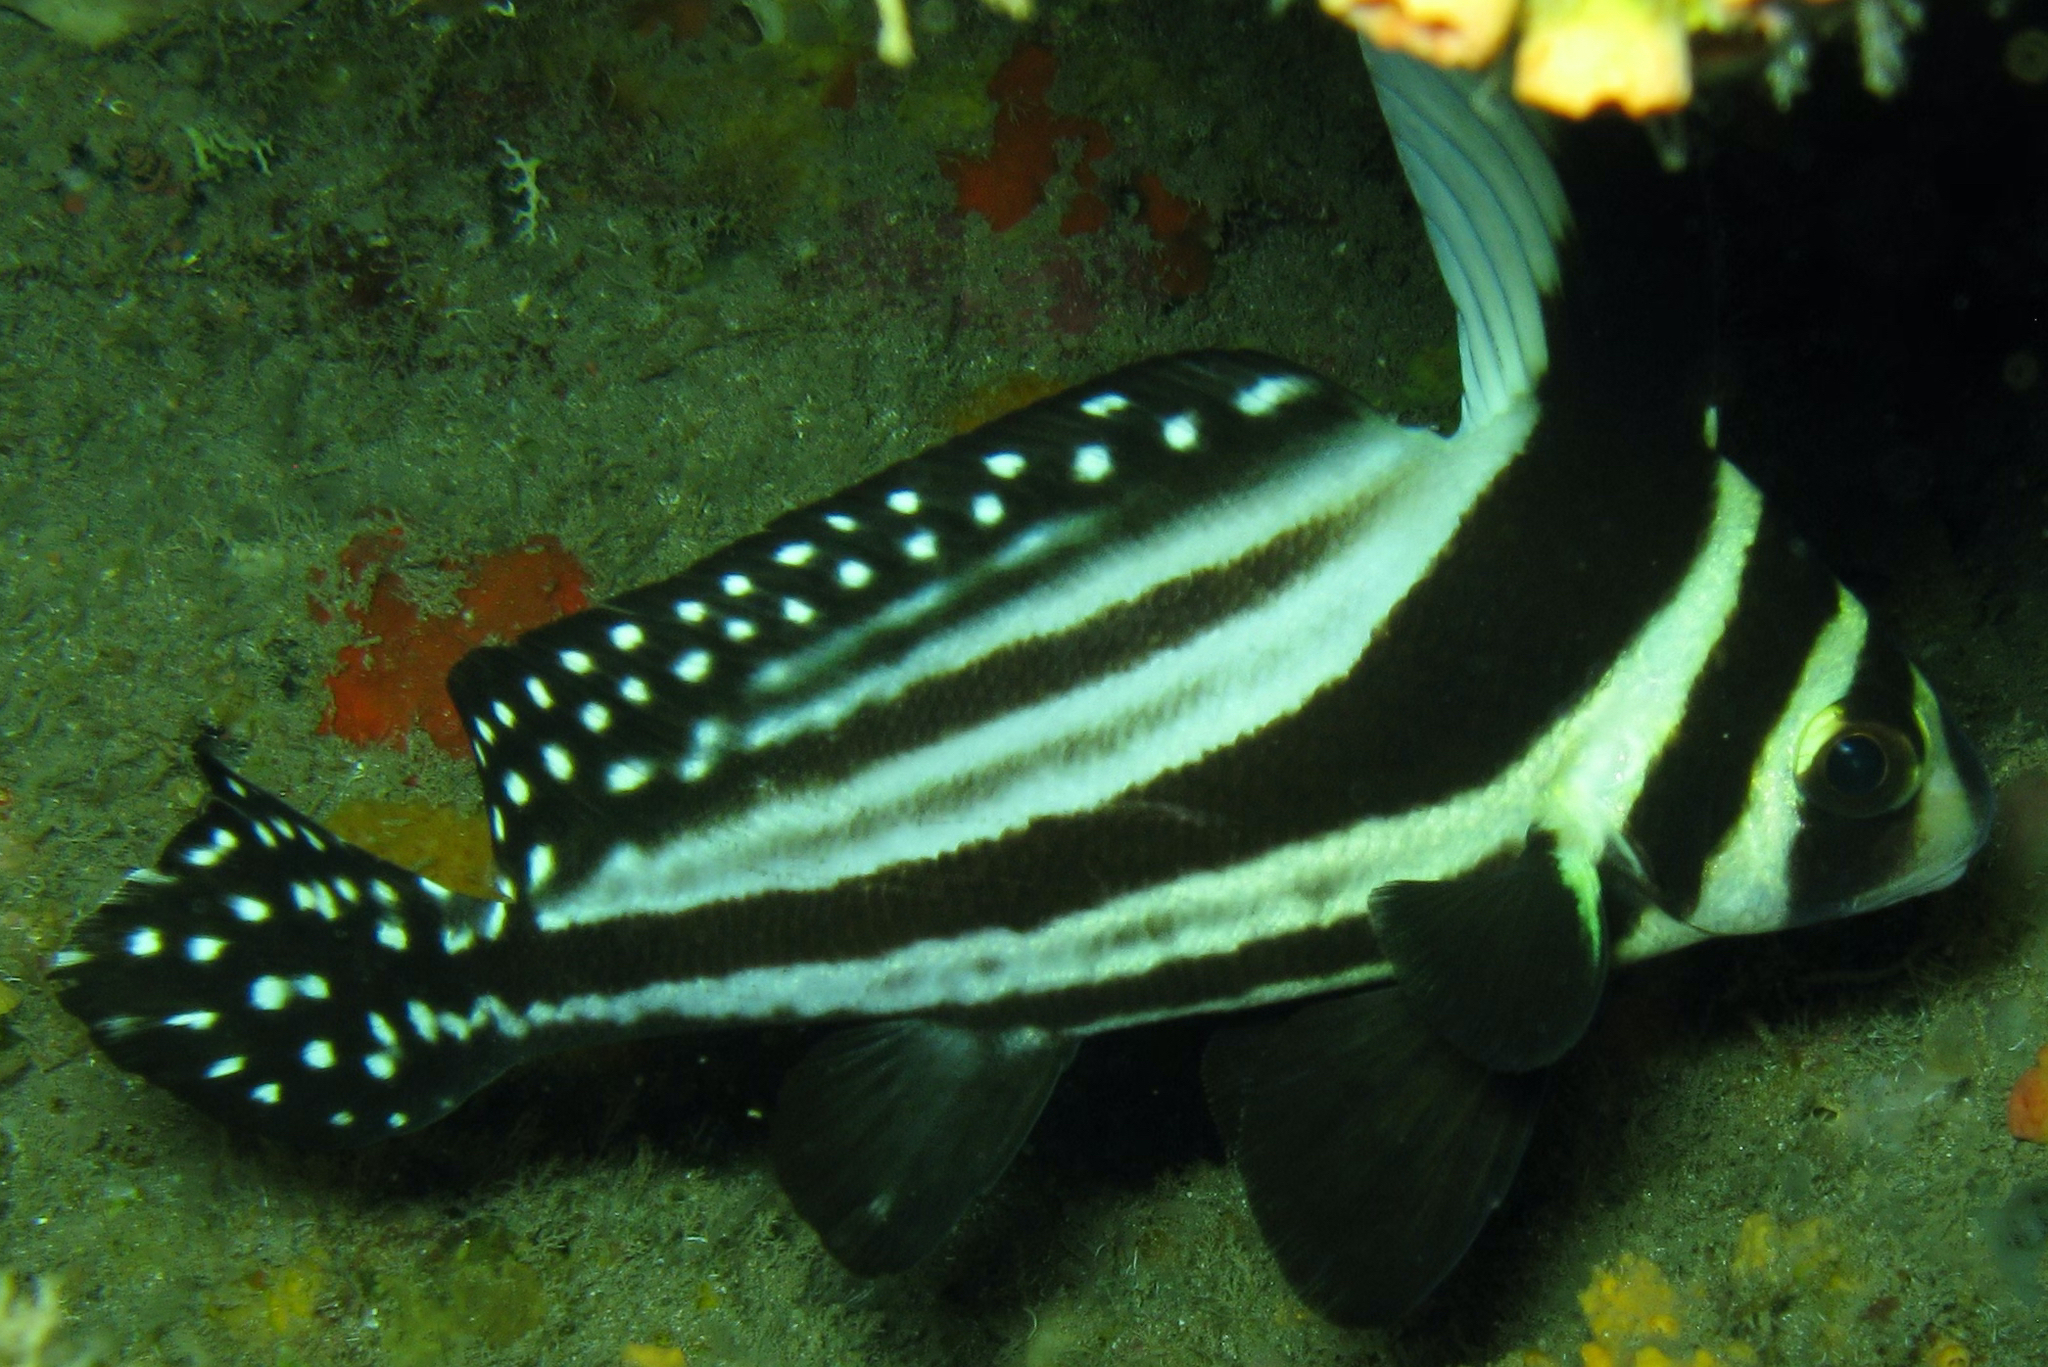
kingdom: Animalia
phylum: Chordata
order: Perciformes
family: Sciaenidae
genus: Equetus
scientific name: Equetus punctatus
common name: Spotted drum
